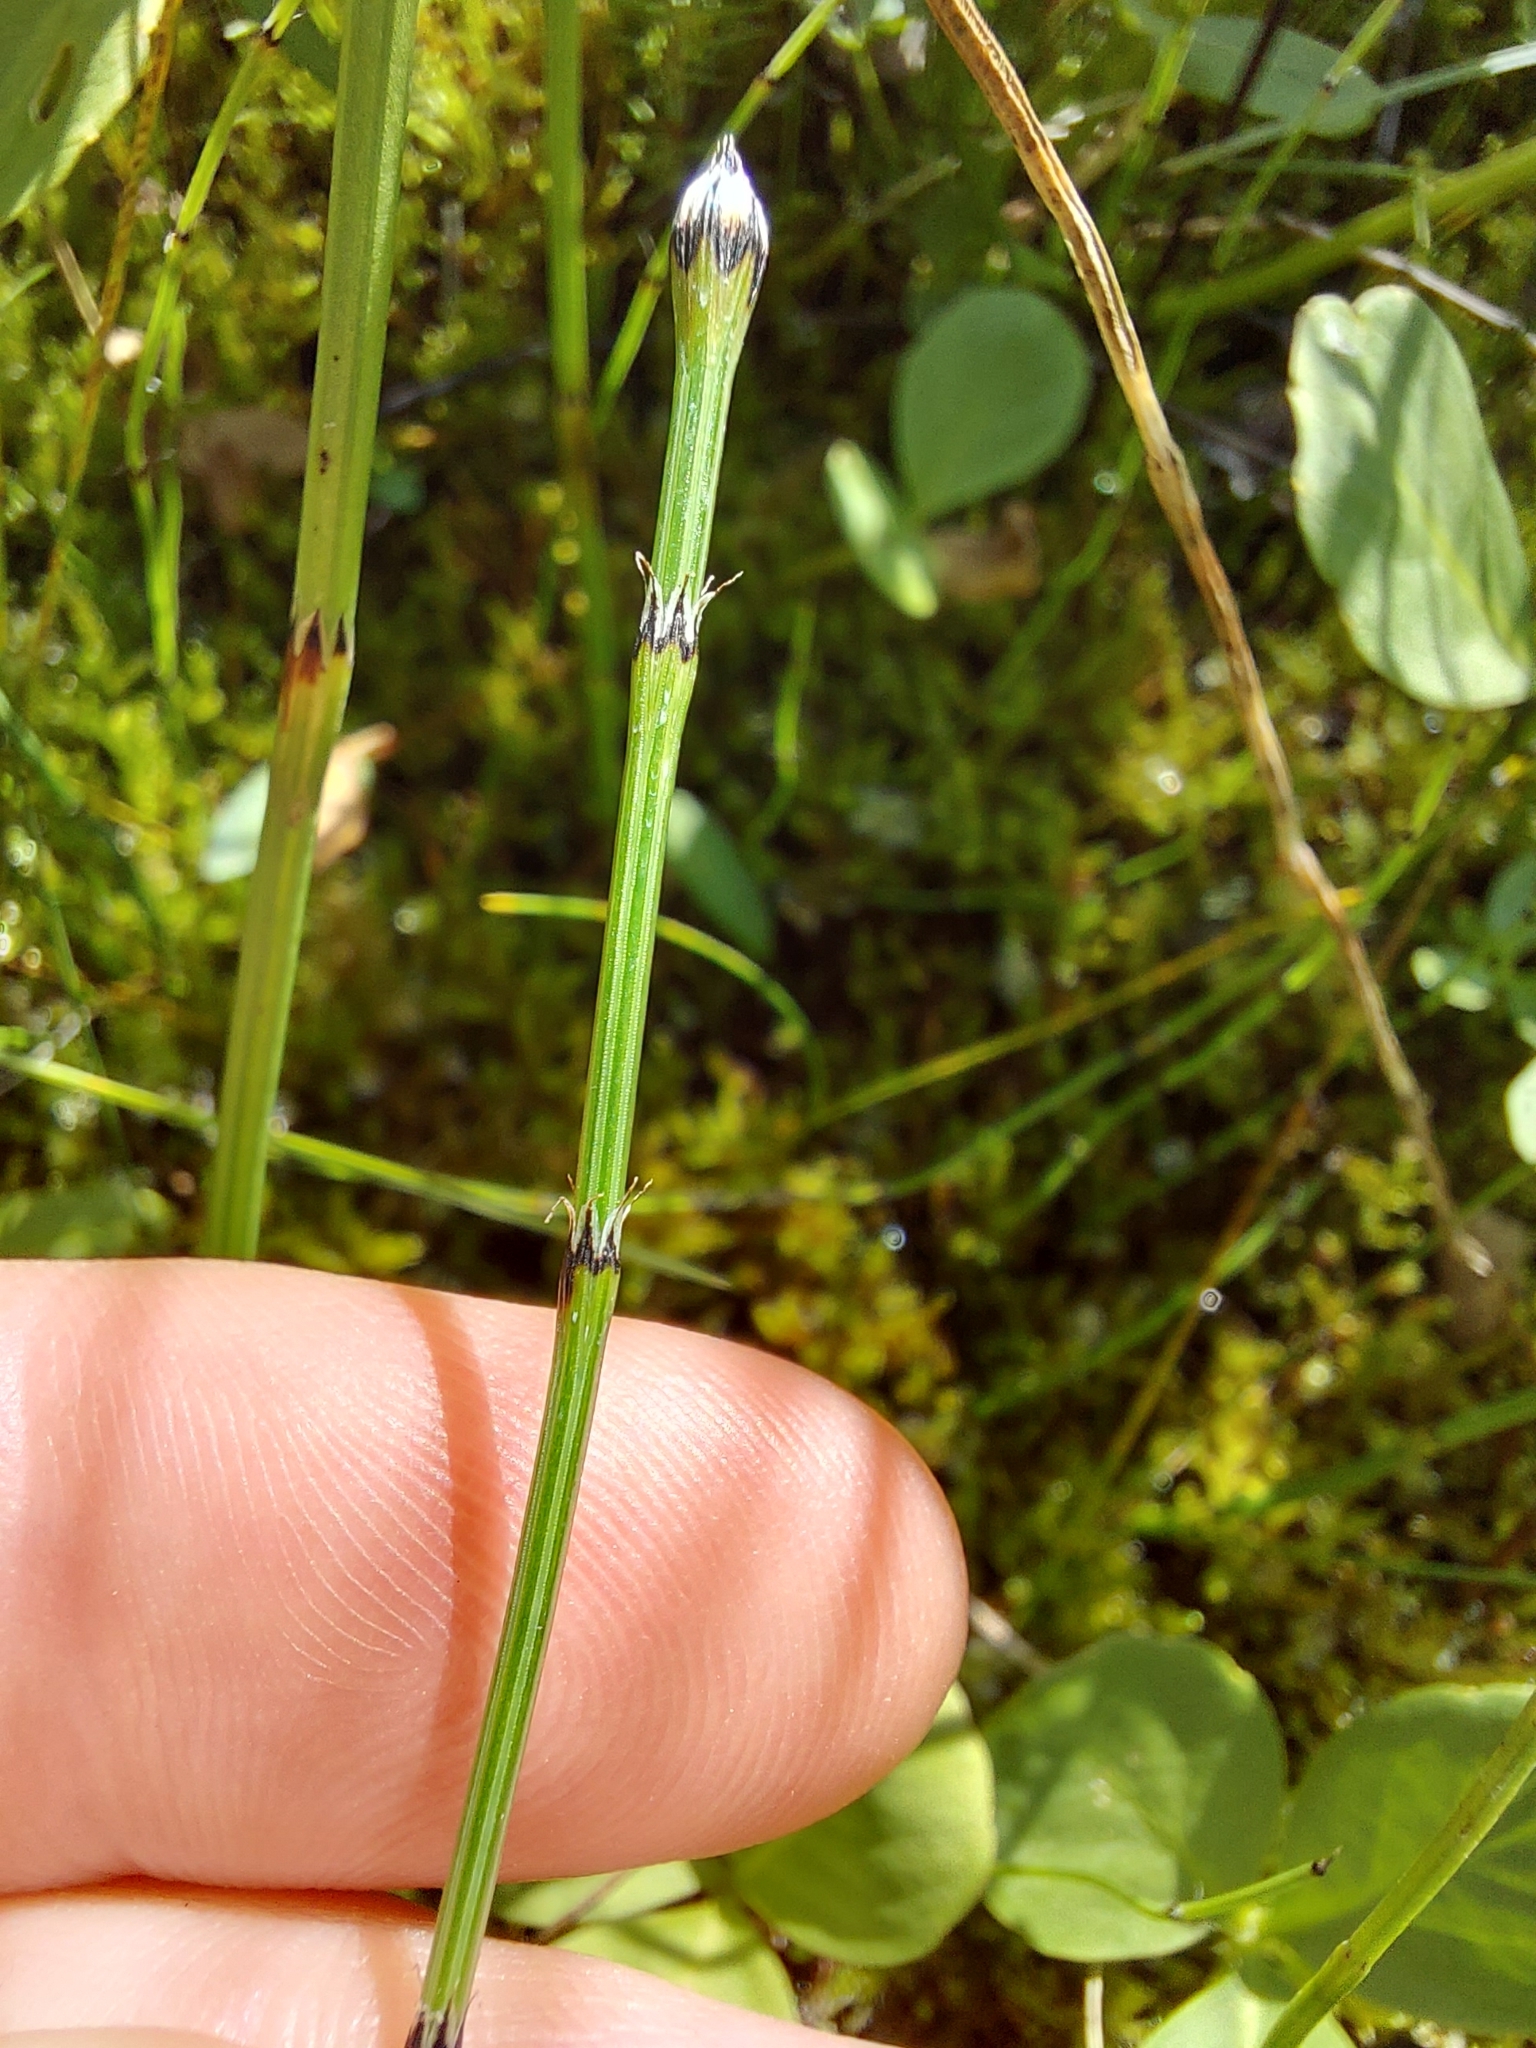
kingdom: Plantae
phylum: Tracheophyta
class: Polypodiopsida
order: Equisetales
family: Equisetaceae
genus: Equisetum
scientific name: Equisetum variegatum
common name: Variegated horsetail
